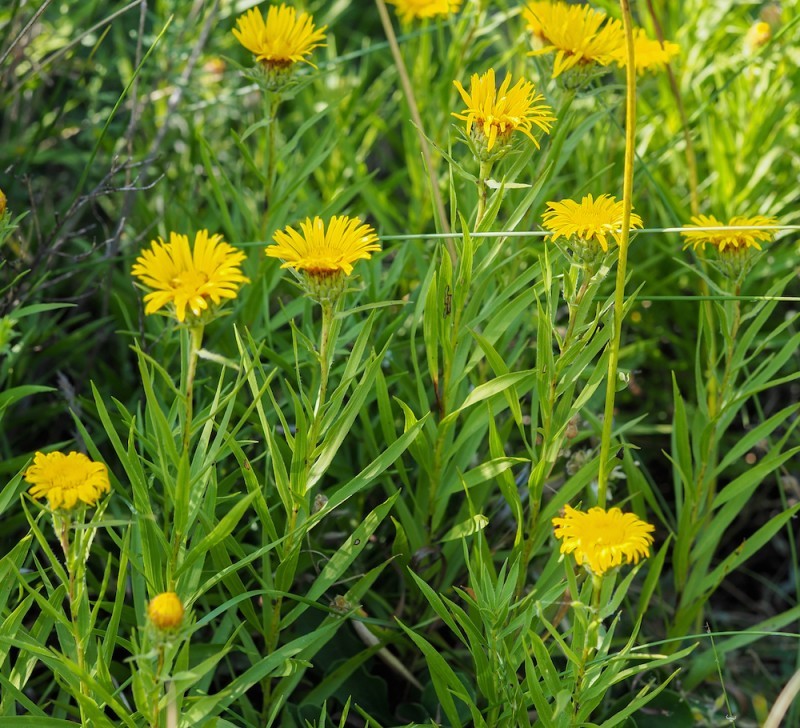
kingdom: Plantae
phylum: Tracheophyta
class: Magnoliopsida
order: Asterales
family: Asteraceae
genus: Pentanema
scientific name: Pentanema ensifolium
